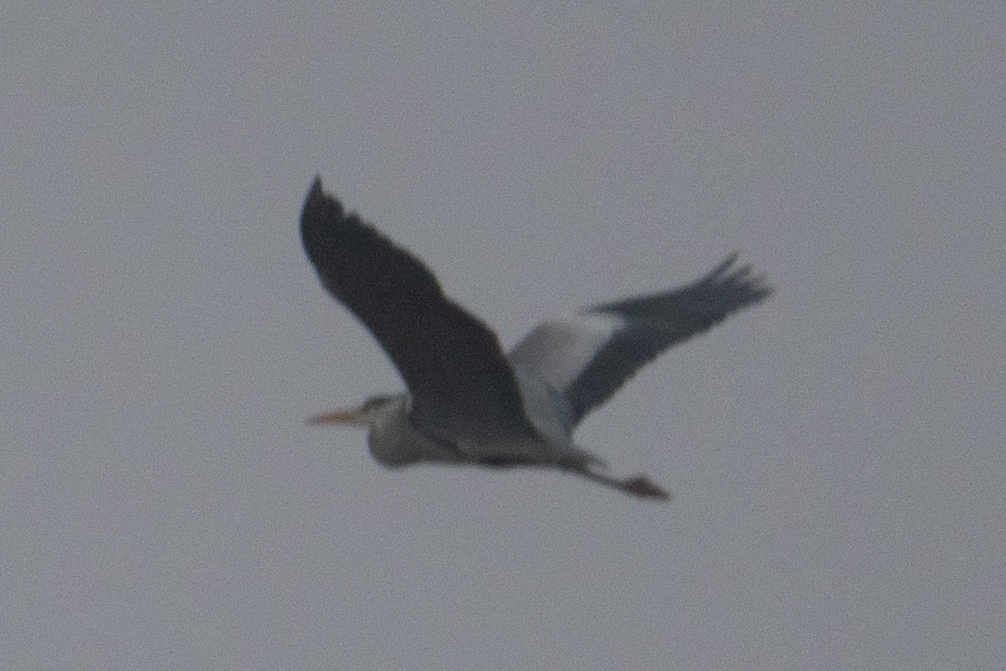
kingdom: Animalia
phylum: Chordata
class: Aves
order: Pelecaniformes
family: Ardeidae
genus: Ardea
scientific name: Ardea cinerea
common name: Grey heron
